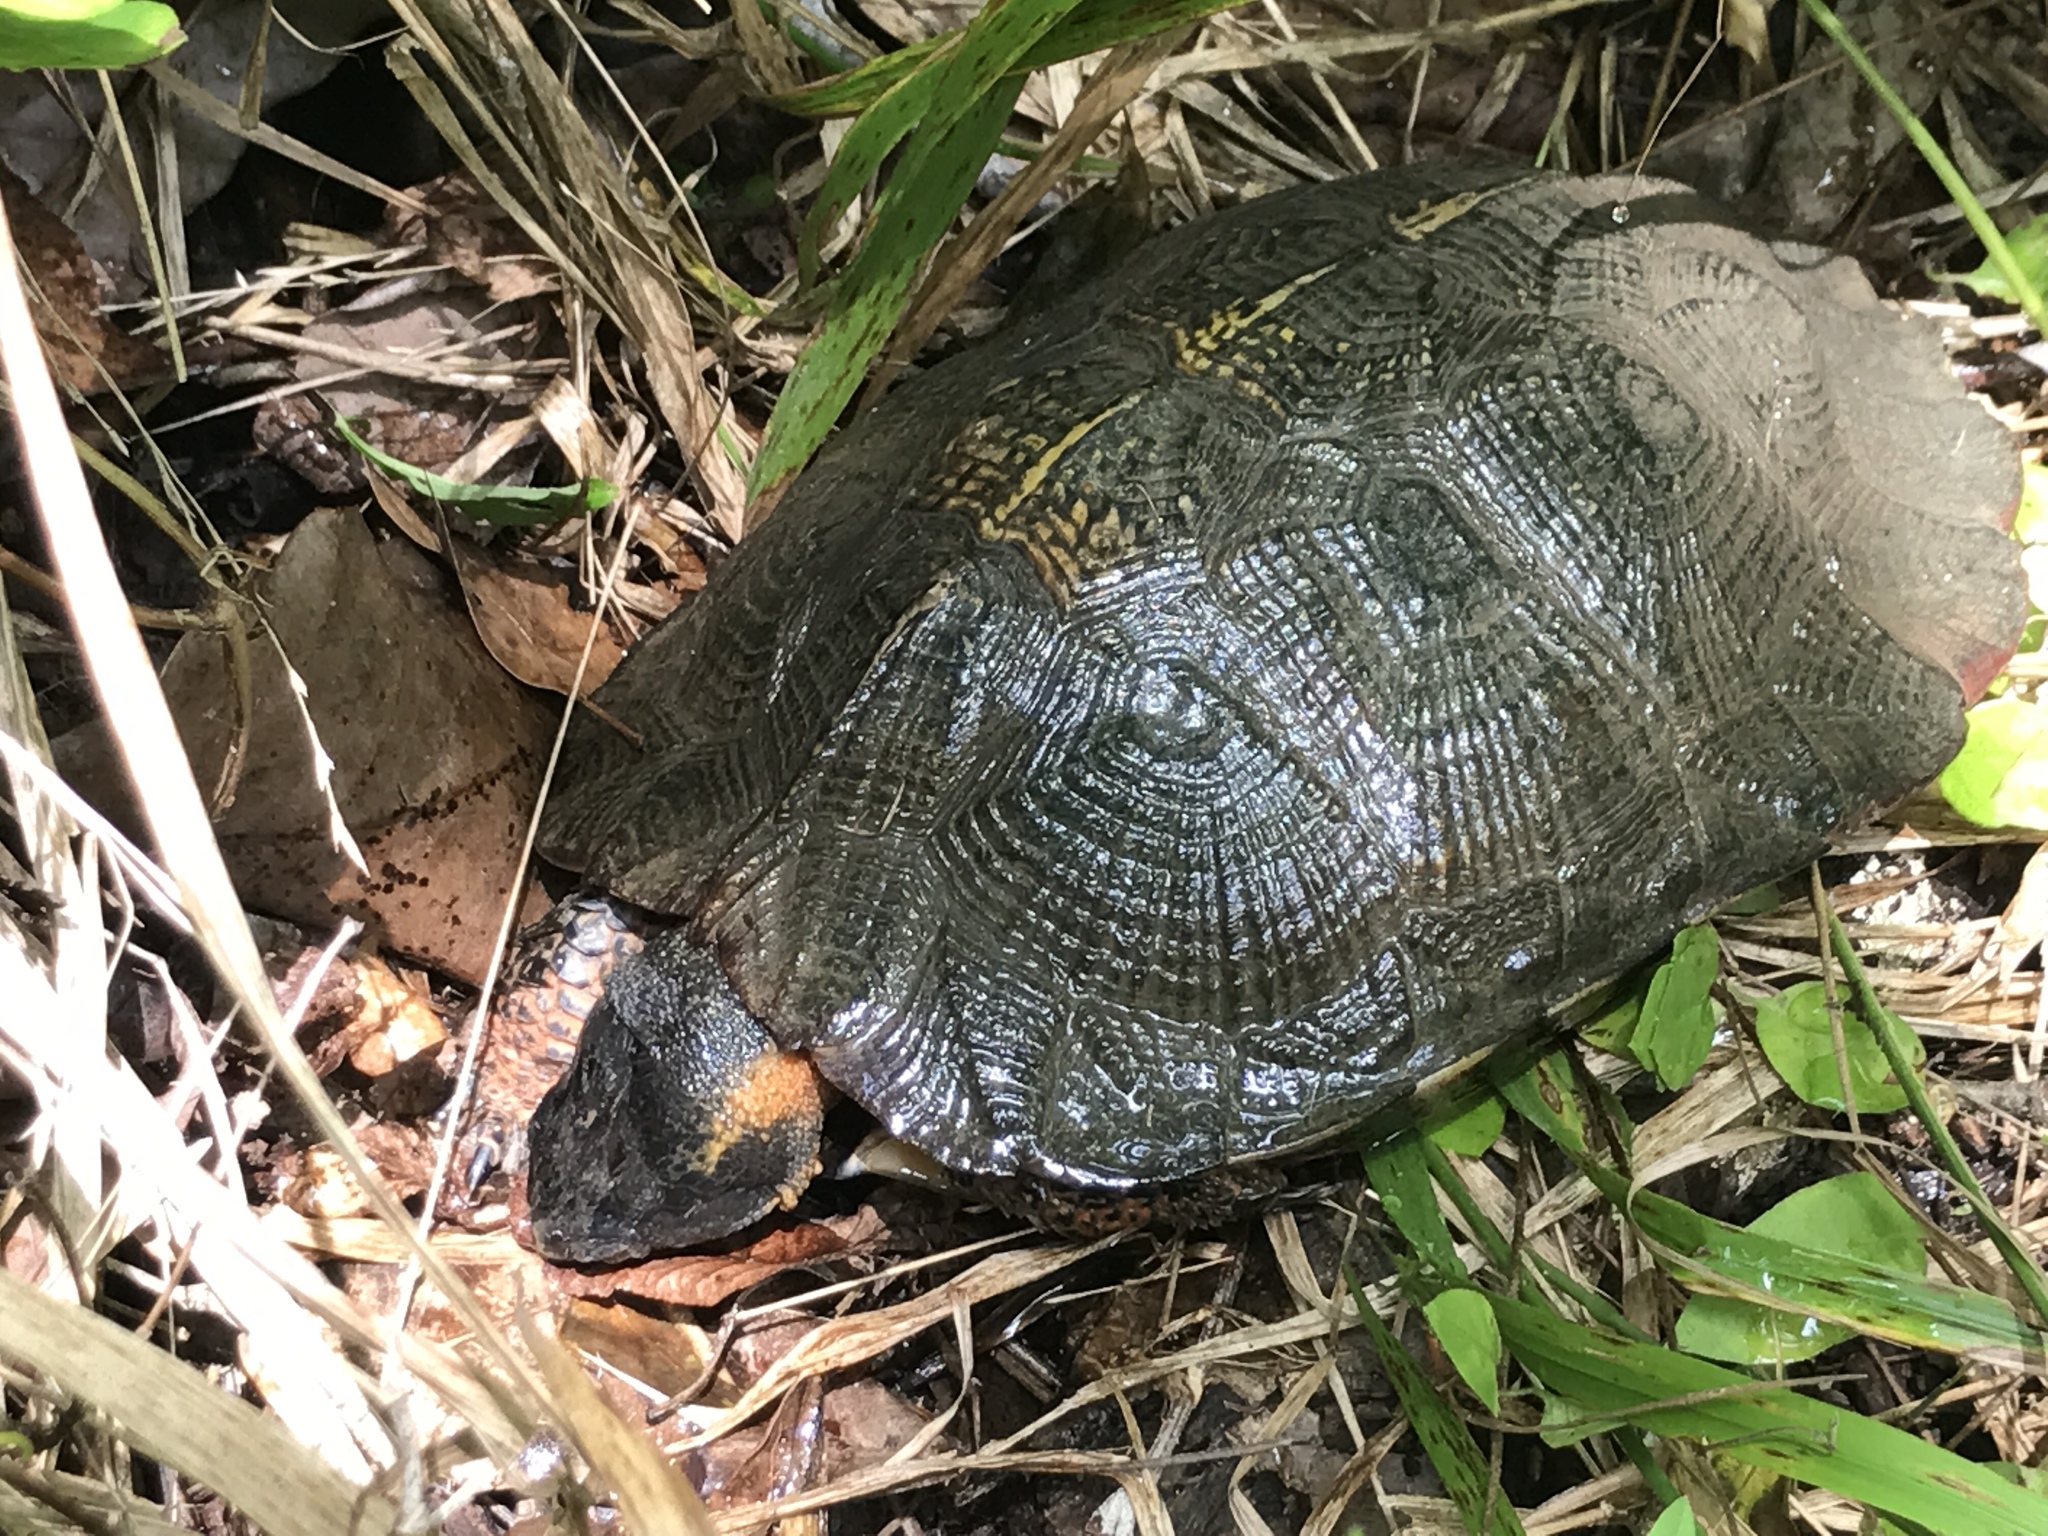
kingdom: Animalia
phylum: Chordata
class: Testudines
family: Emydidae
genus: Glyptemys
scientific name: Glyptemys insculpta
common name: Wood turtle
